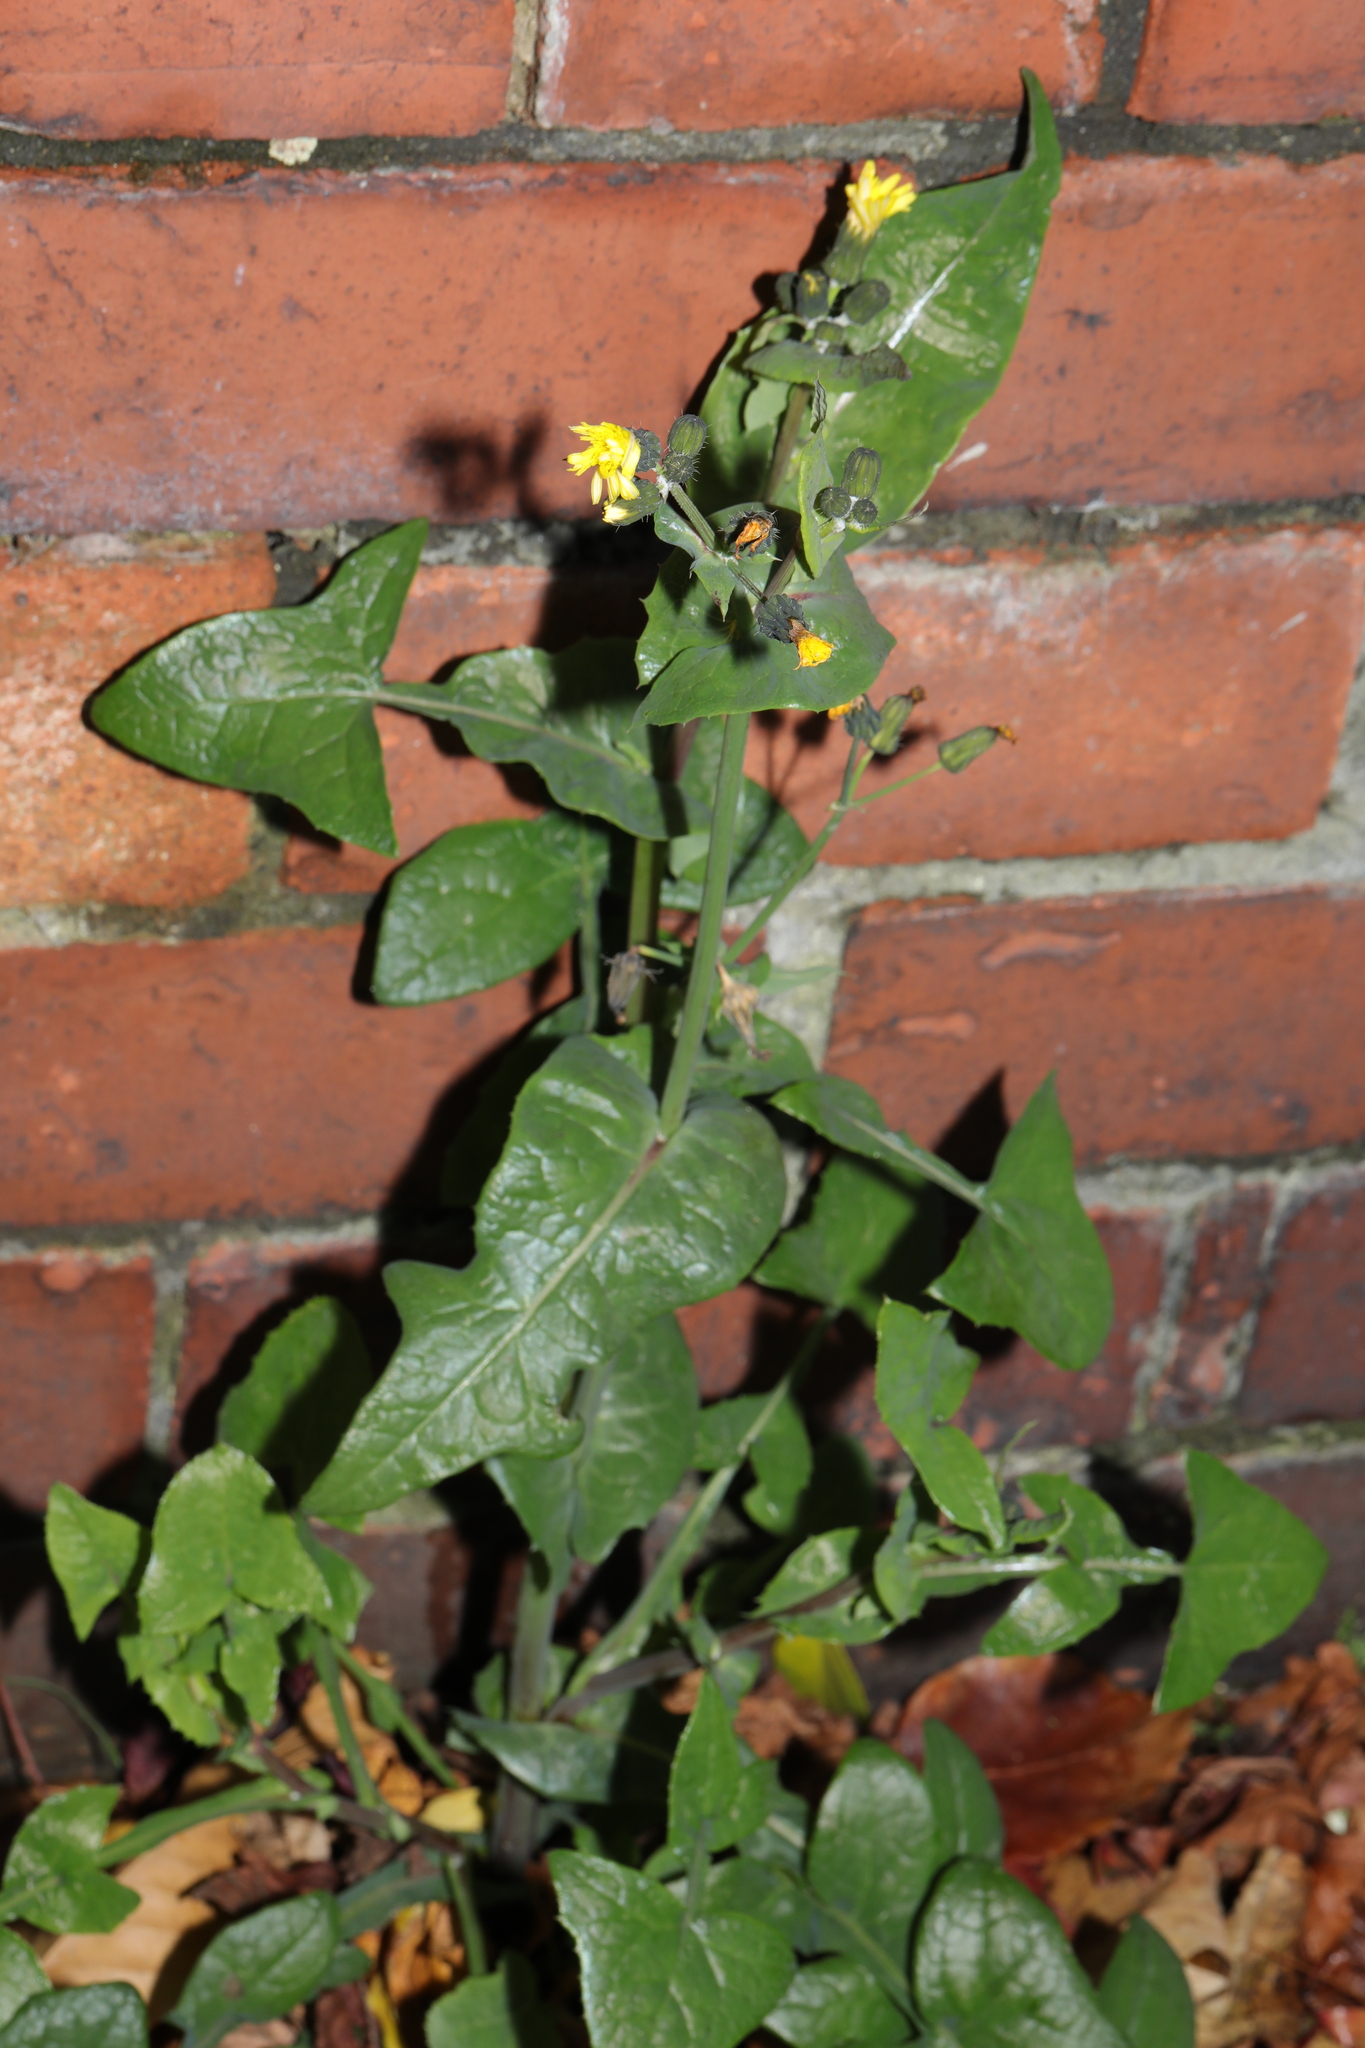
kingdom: Plantae
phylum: Tracheophyta
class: Magnoliopsida
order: Asterales
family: Asteraceae
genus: Sonchus
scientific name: Sonchus oleraceus
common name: Common sowthistle
